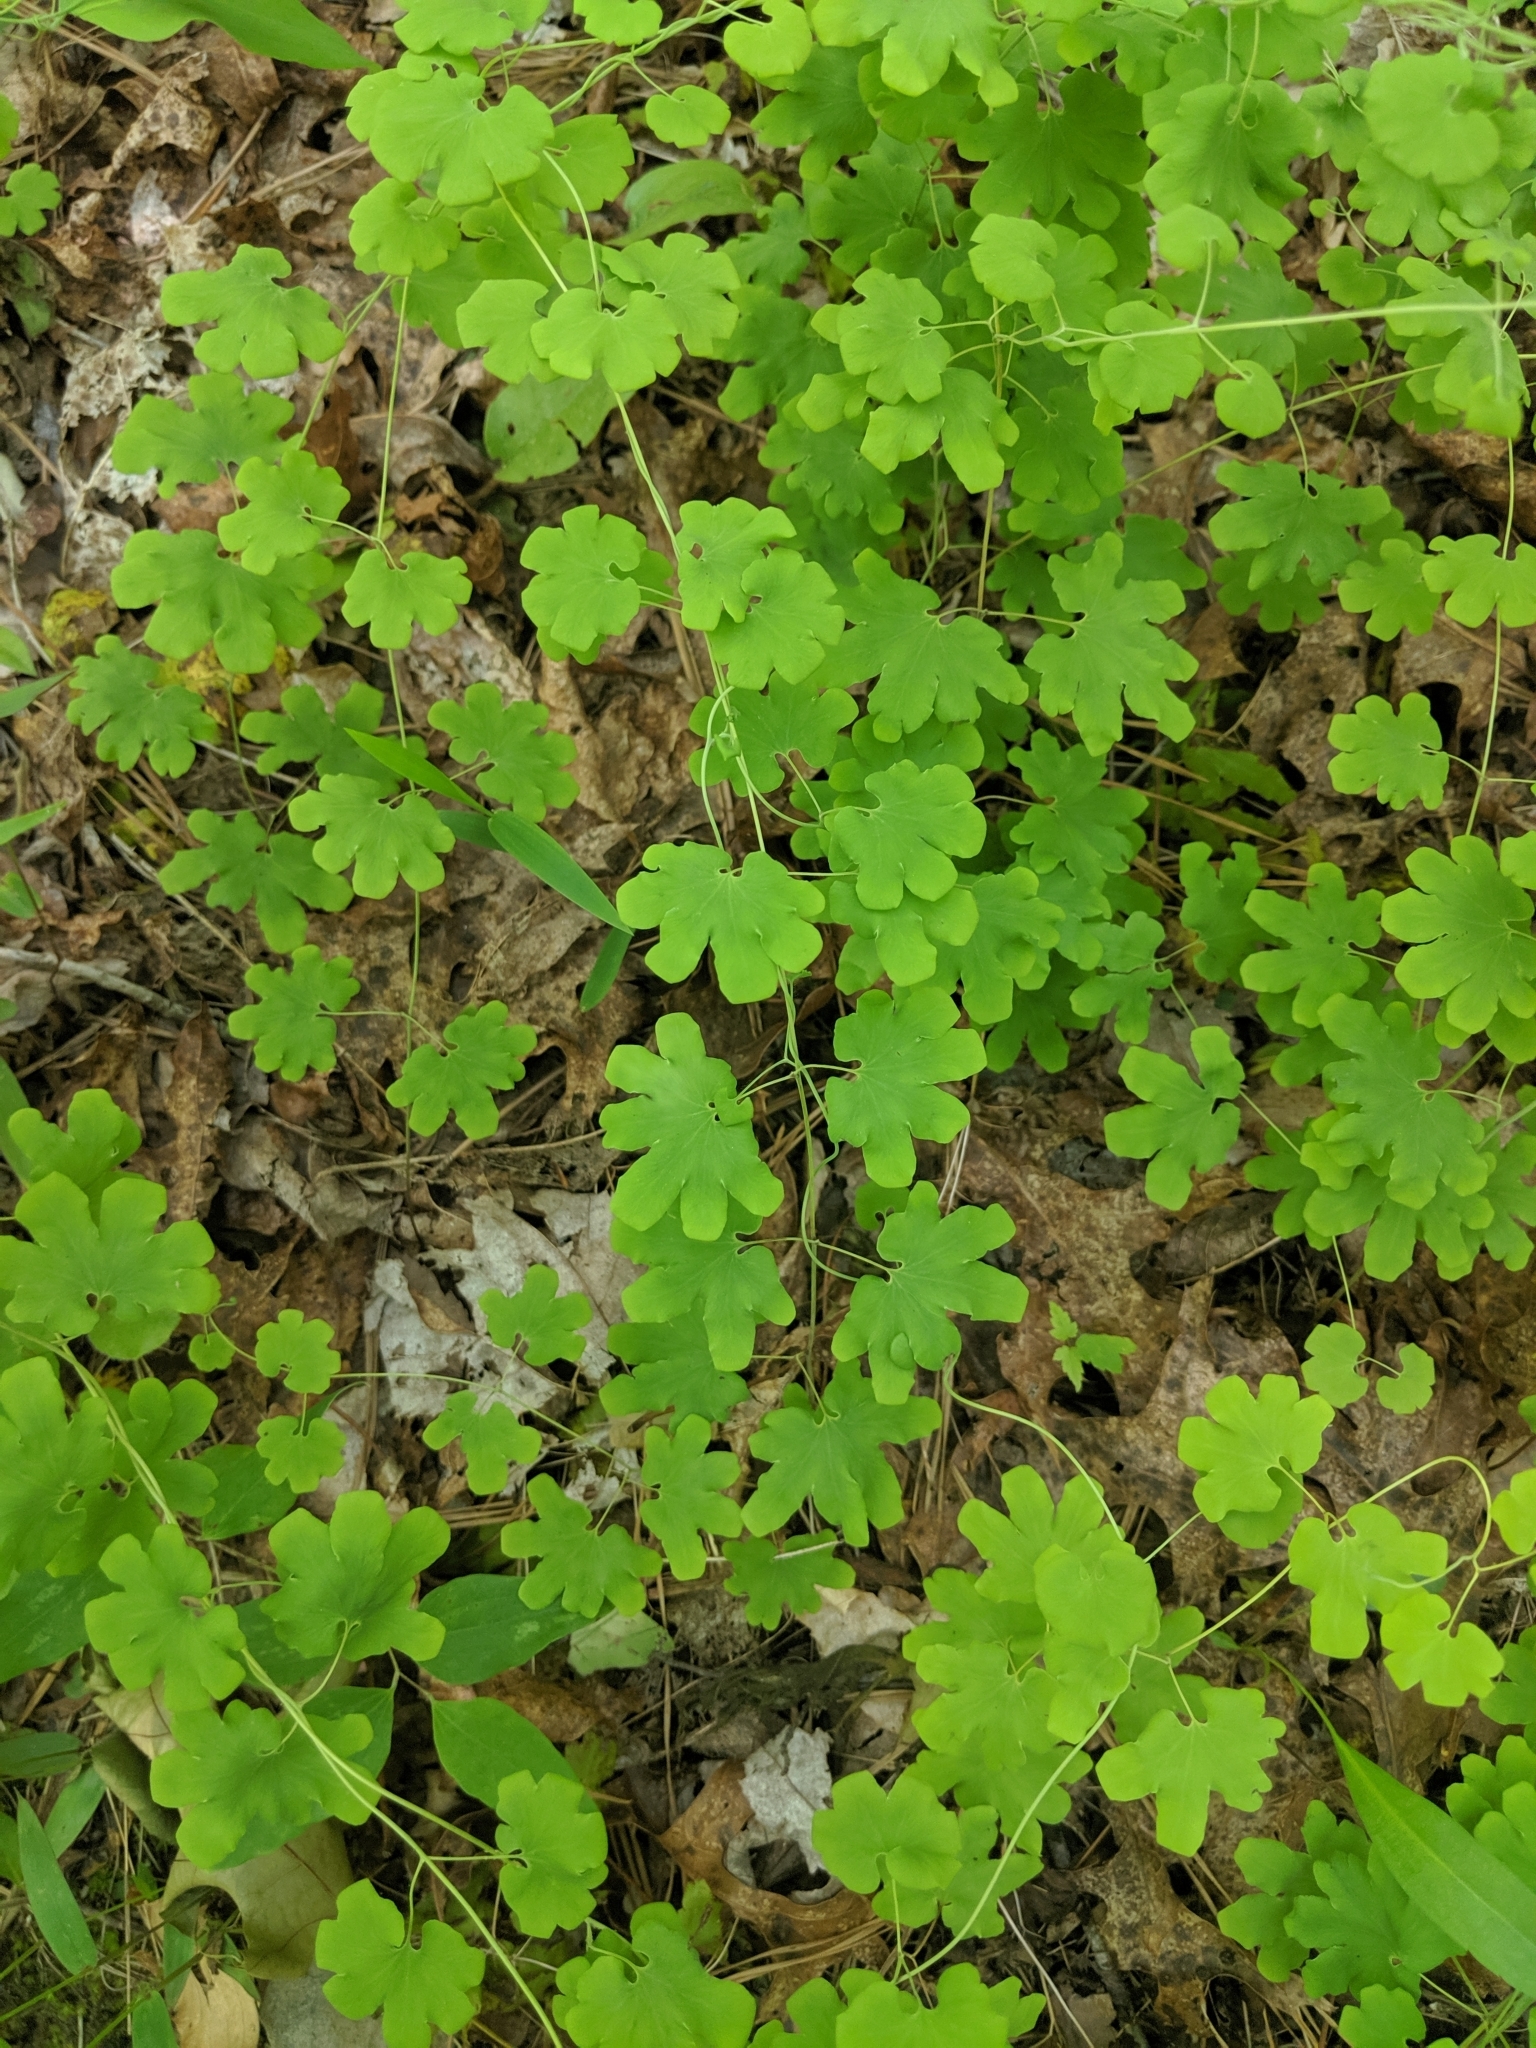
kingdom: Plantae
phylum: Tracheophyta
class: Polypodiopsida
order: Schizaeales
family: Lygodiaceae
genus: Lygodium
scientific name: Lygodium palmatum
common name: American climbing fern
